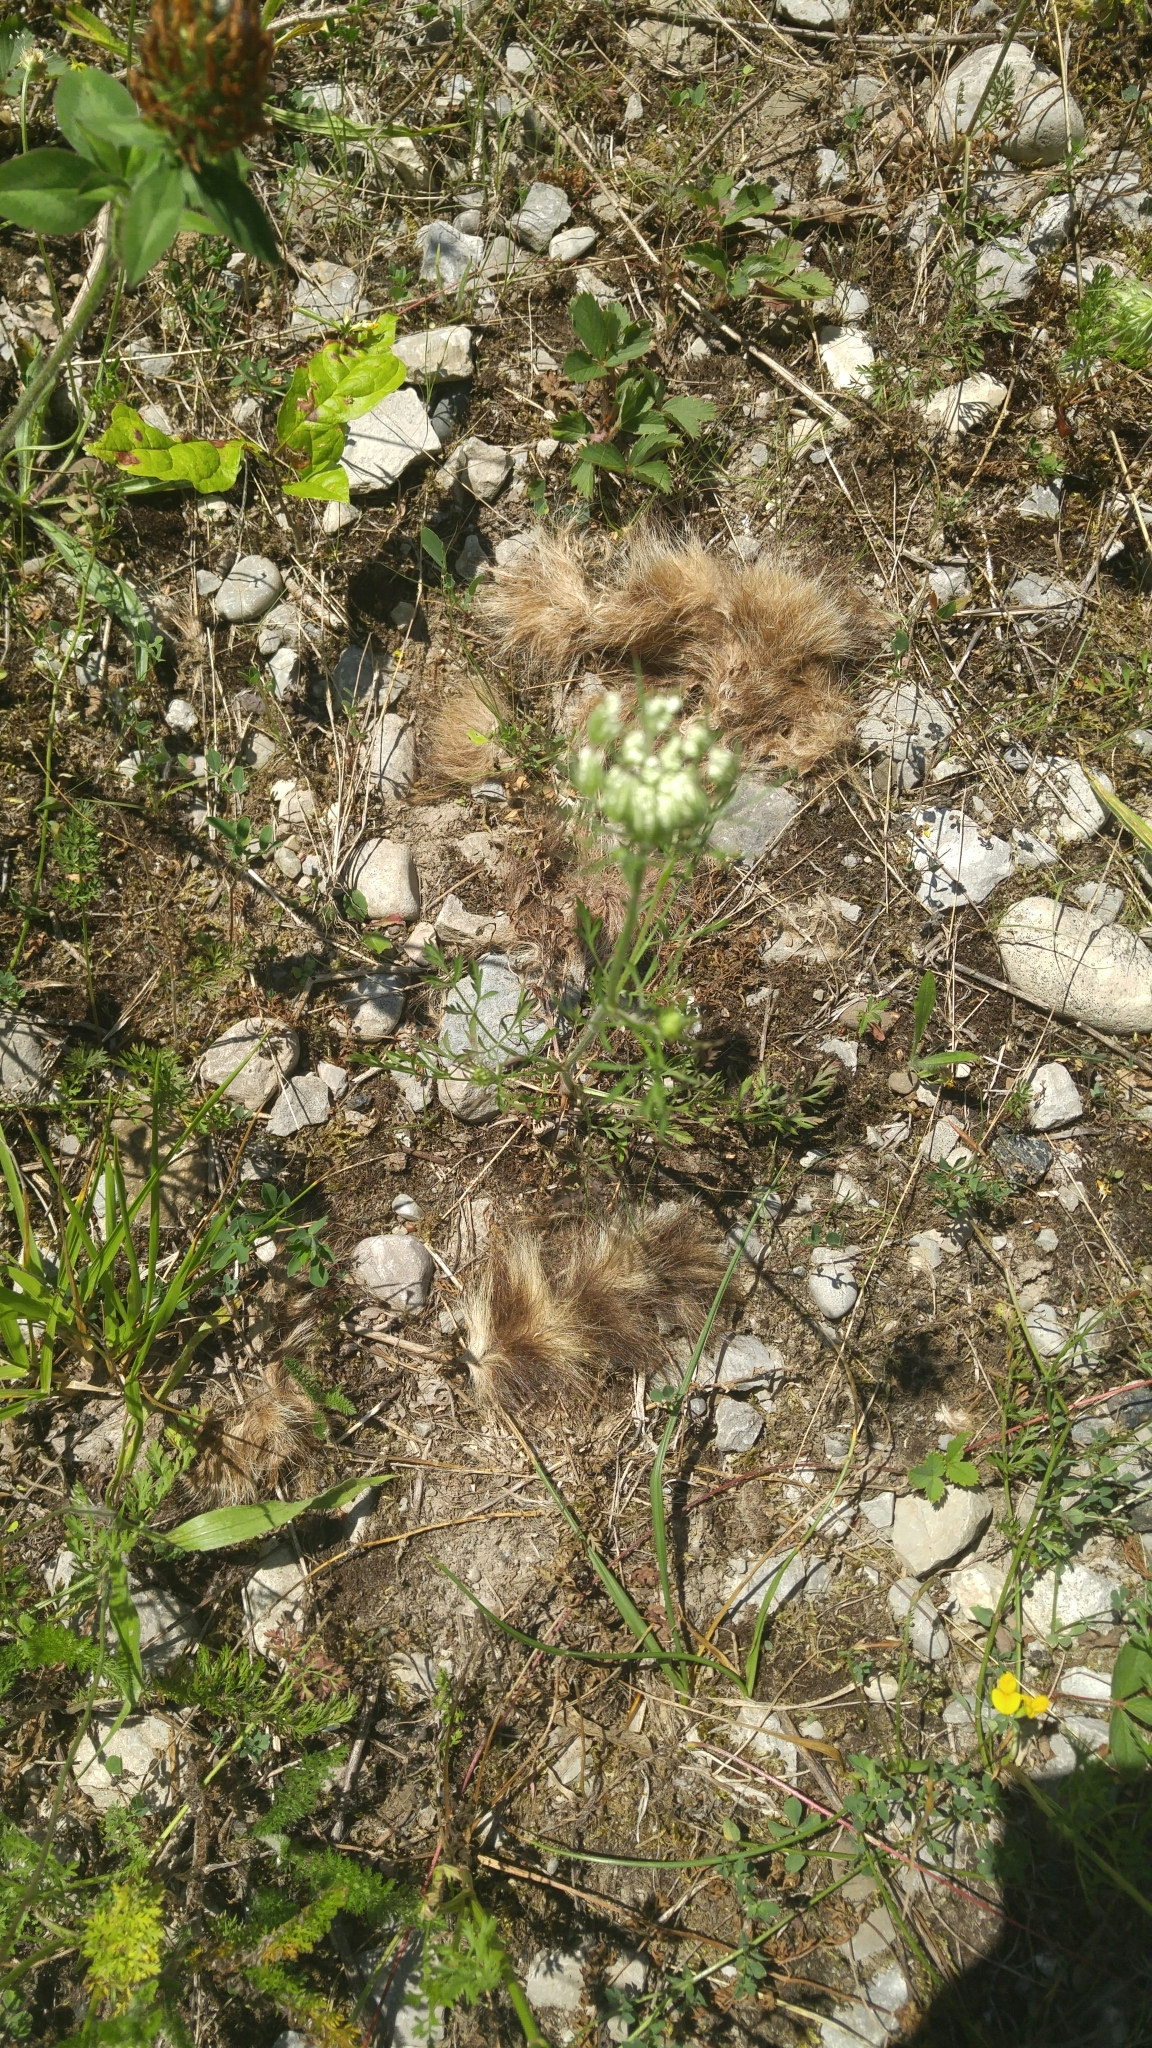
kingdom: Animalia
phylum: Chordata
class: Mammalia
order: Carnivora
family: Procyonidae
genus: Procyon
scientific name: Procyon lotor
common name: Raccoon
